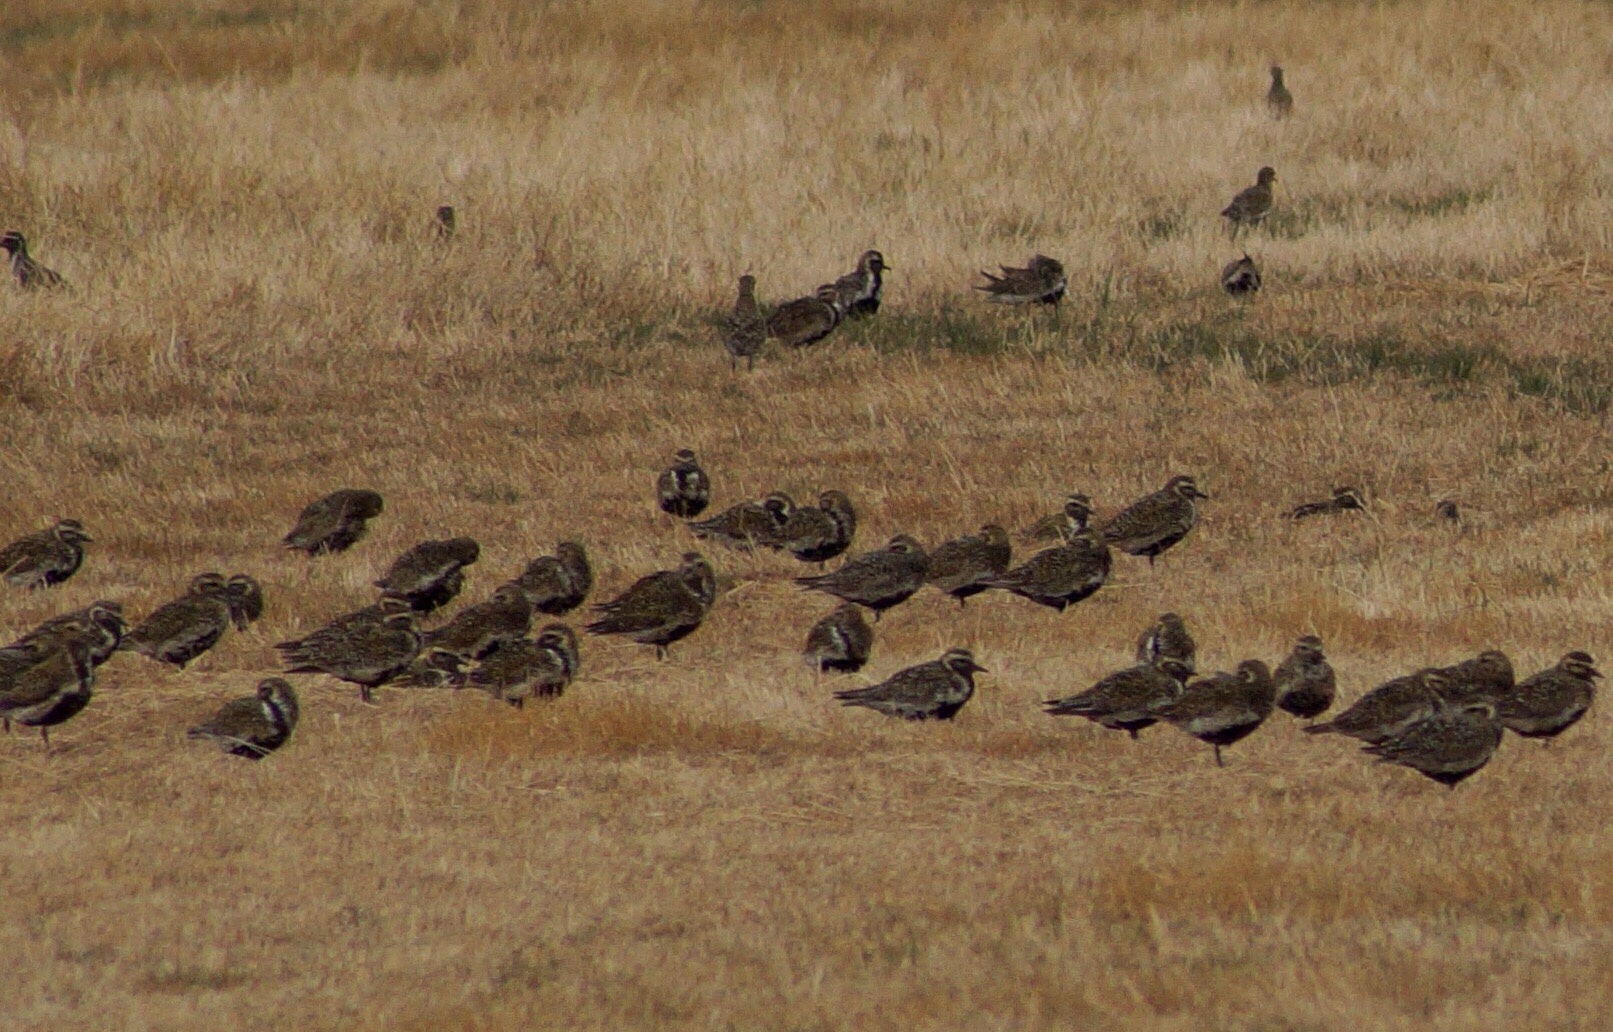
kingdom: Animalia
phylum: Chordata
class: Aves
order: Charadriiformes
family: Charadriidae
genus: Pluvialis
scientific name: Pluvialis apricaria
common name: European golden plover
